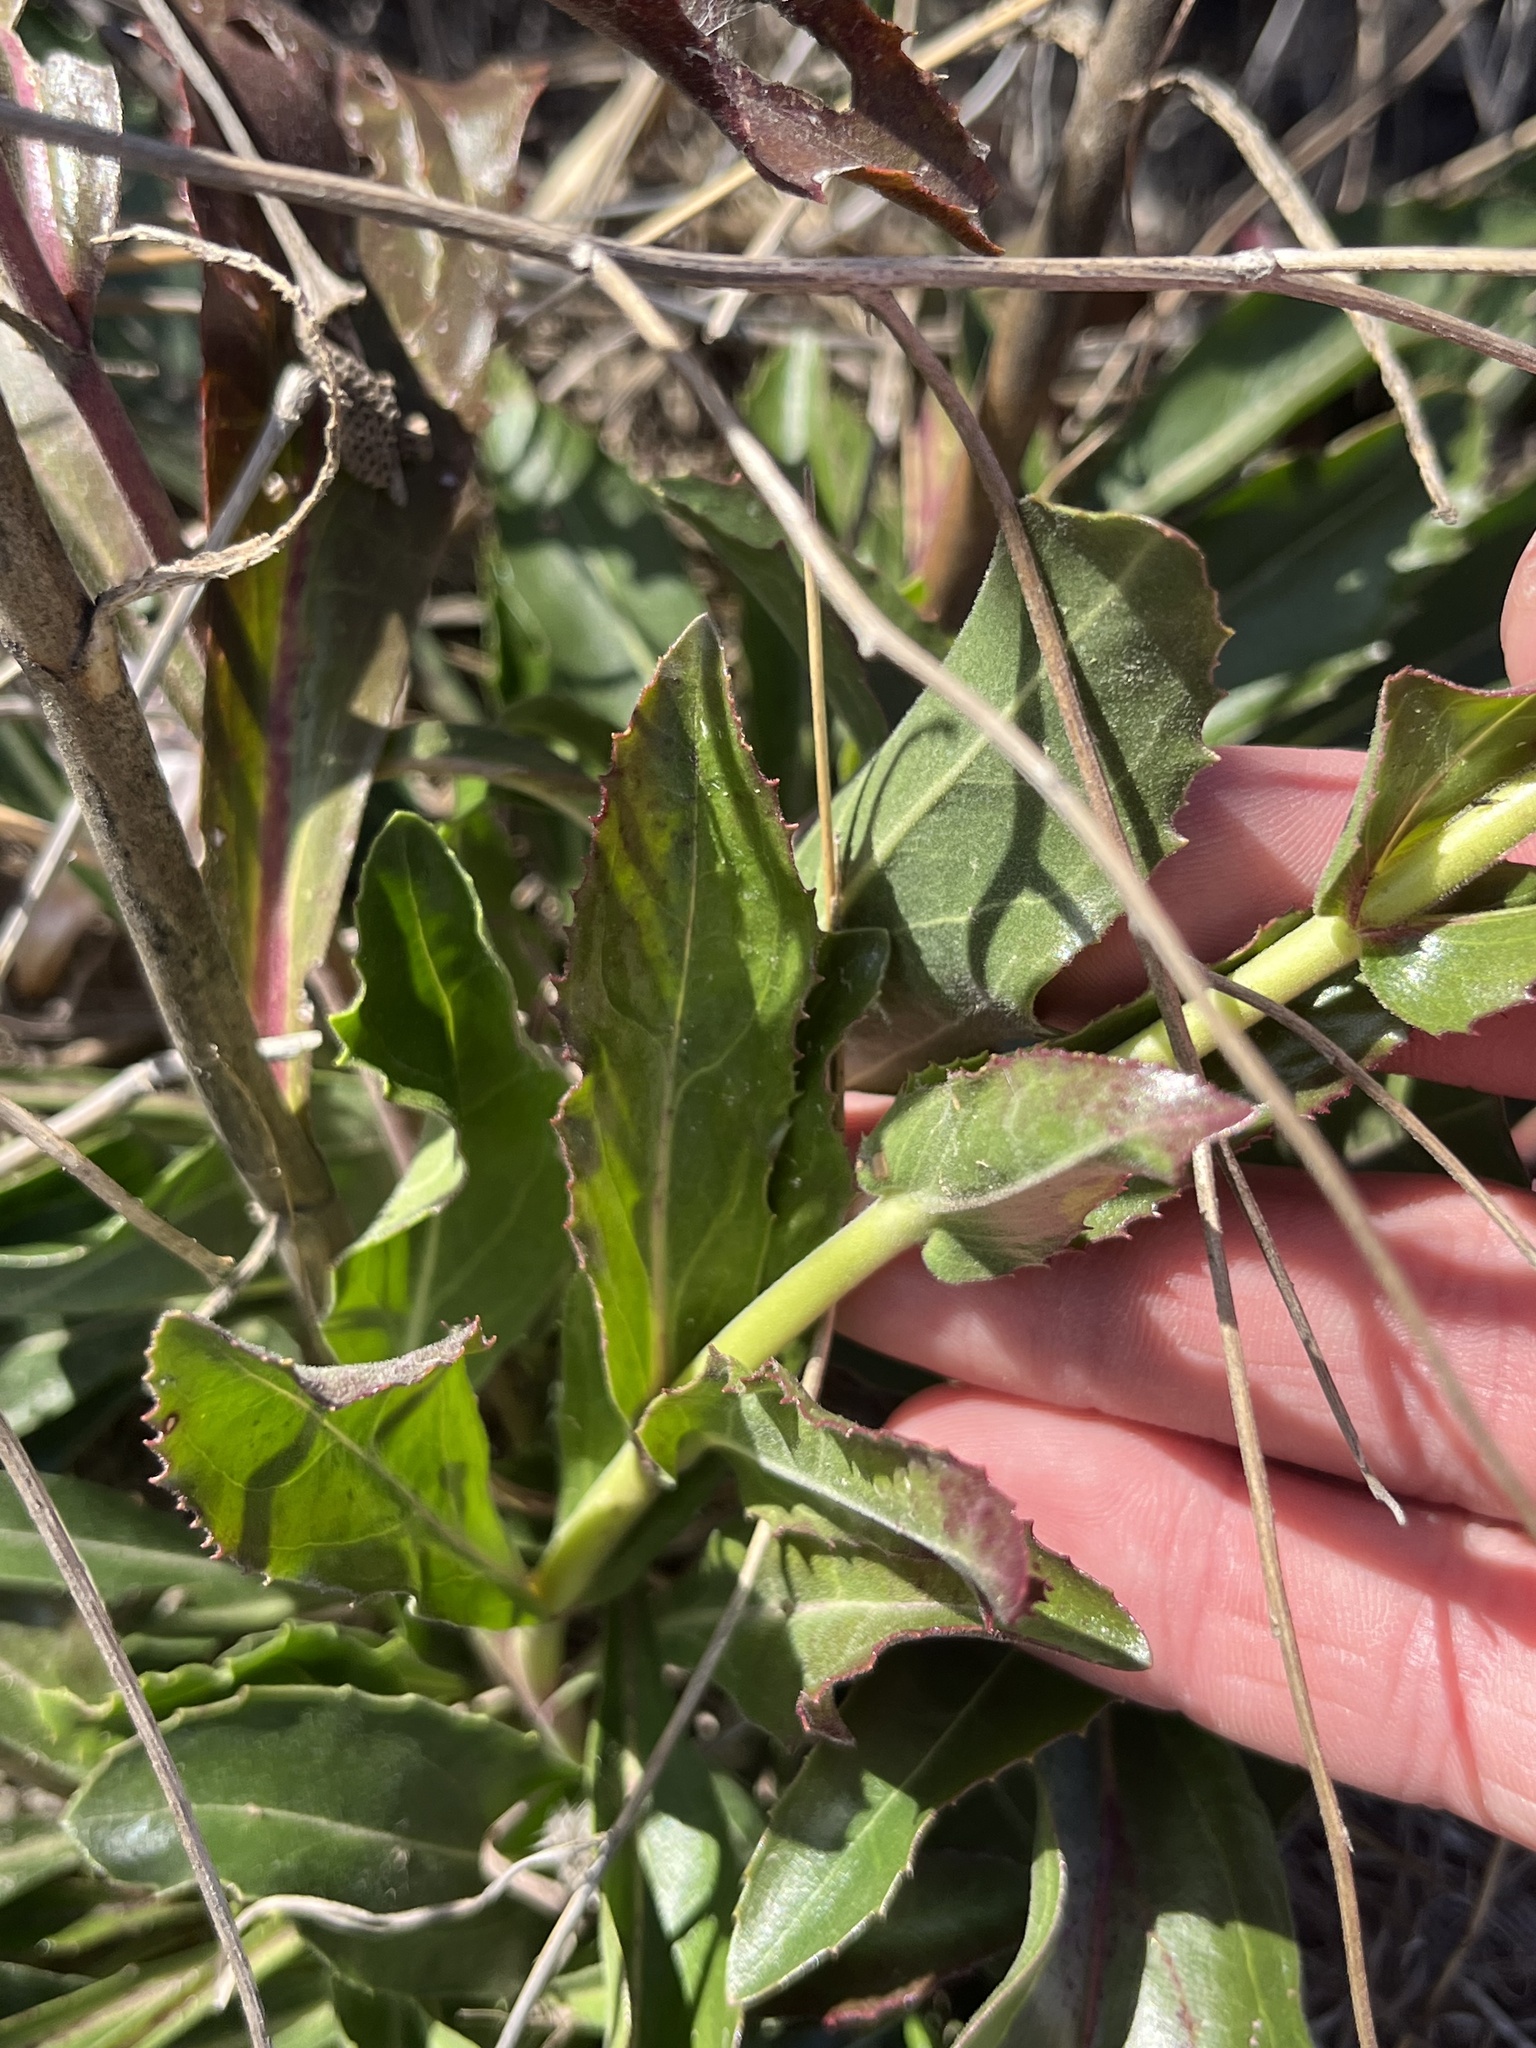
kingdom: Plantae
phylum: Tracheophyta
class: Magnoliopsida
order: Lamiales
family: Plantaginaceae
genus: Penstemon
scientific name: Penstemon cobaea
